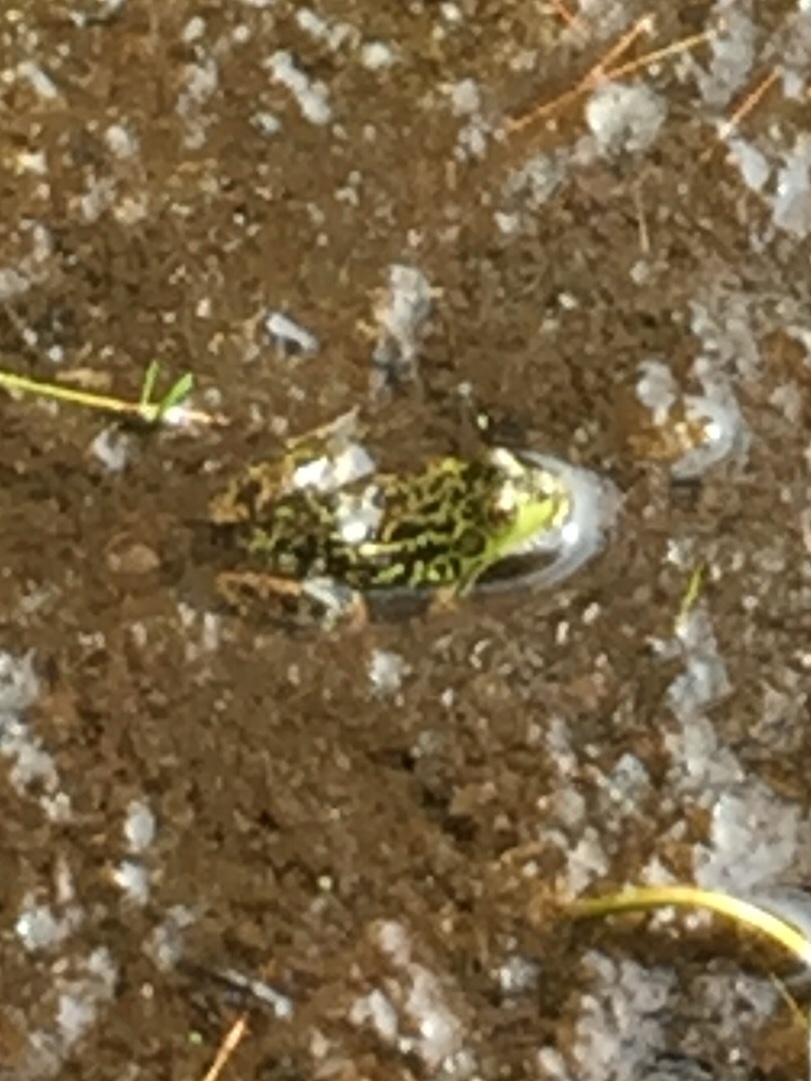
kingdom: Animalia
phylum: Chordata
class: Amphibia
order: Anura
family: Ranidae
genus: Lithobates
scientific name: Lithobates septentrionalis
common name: Mink frog
